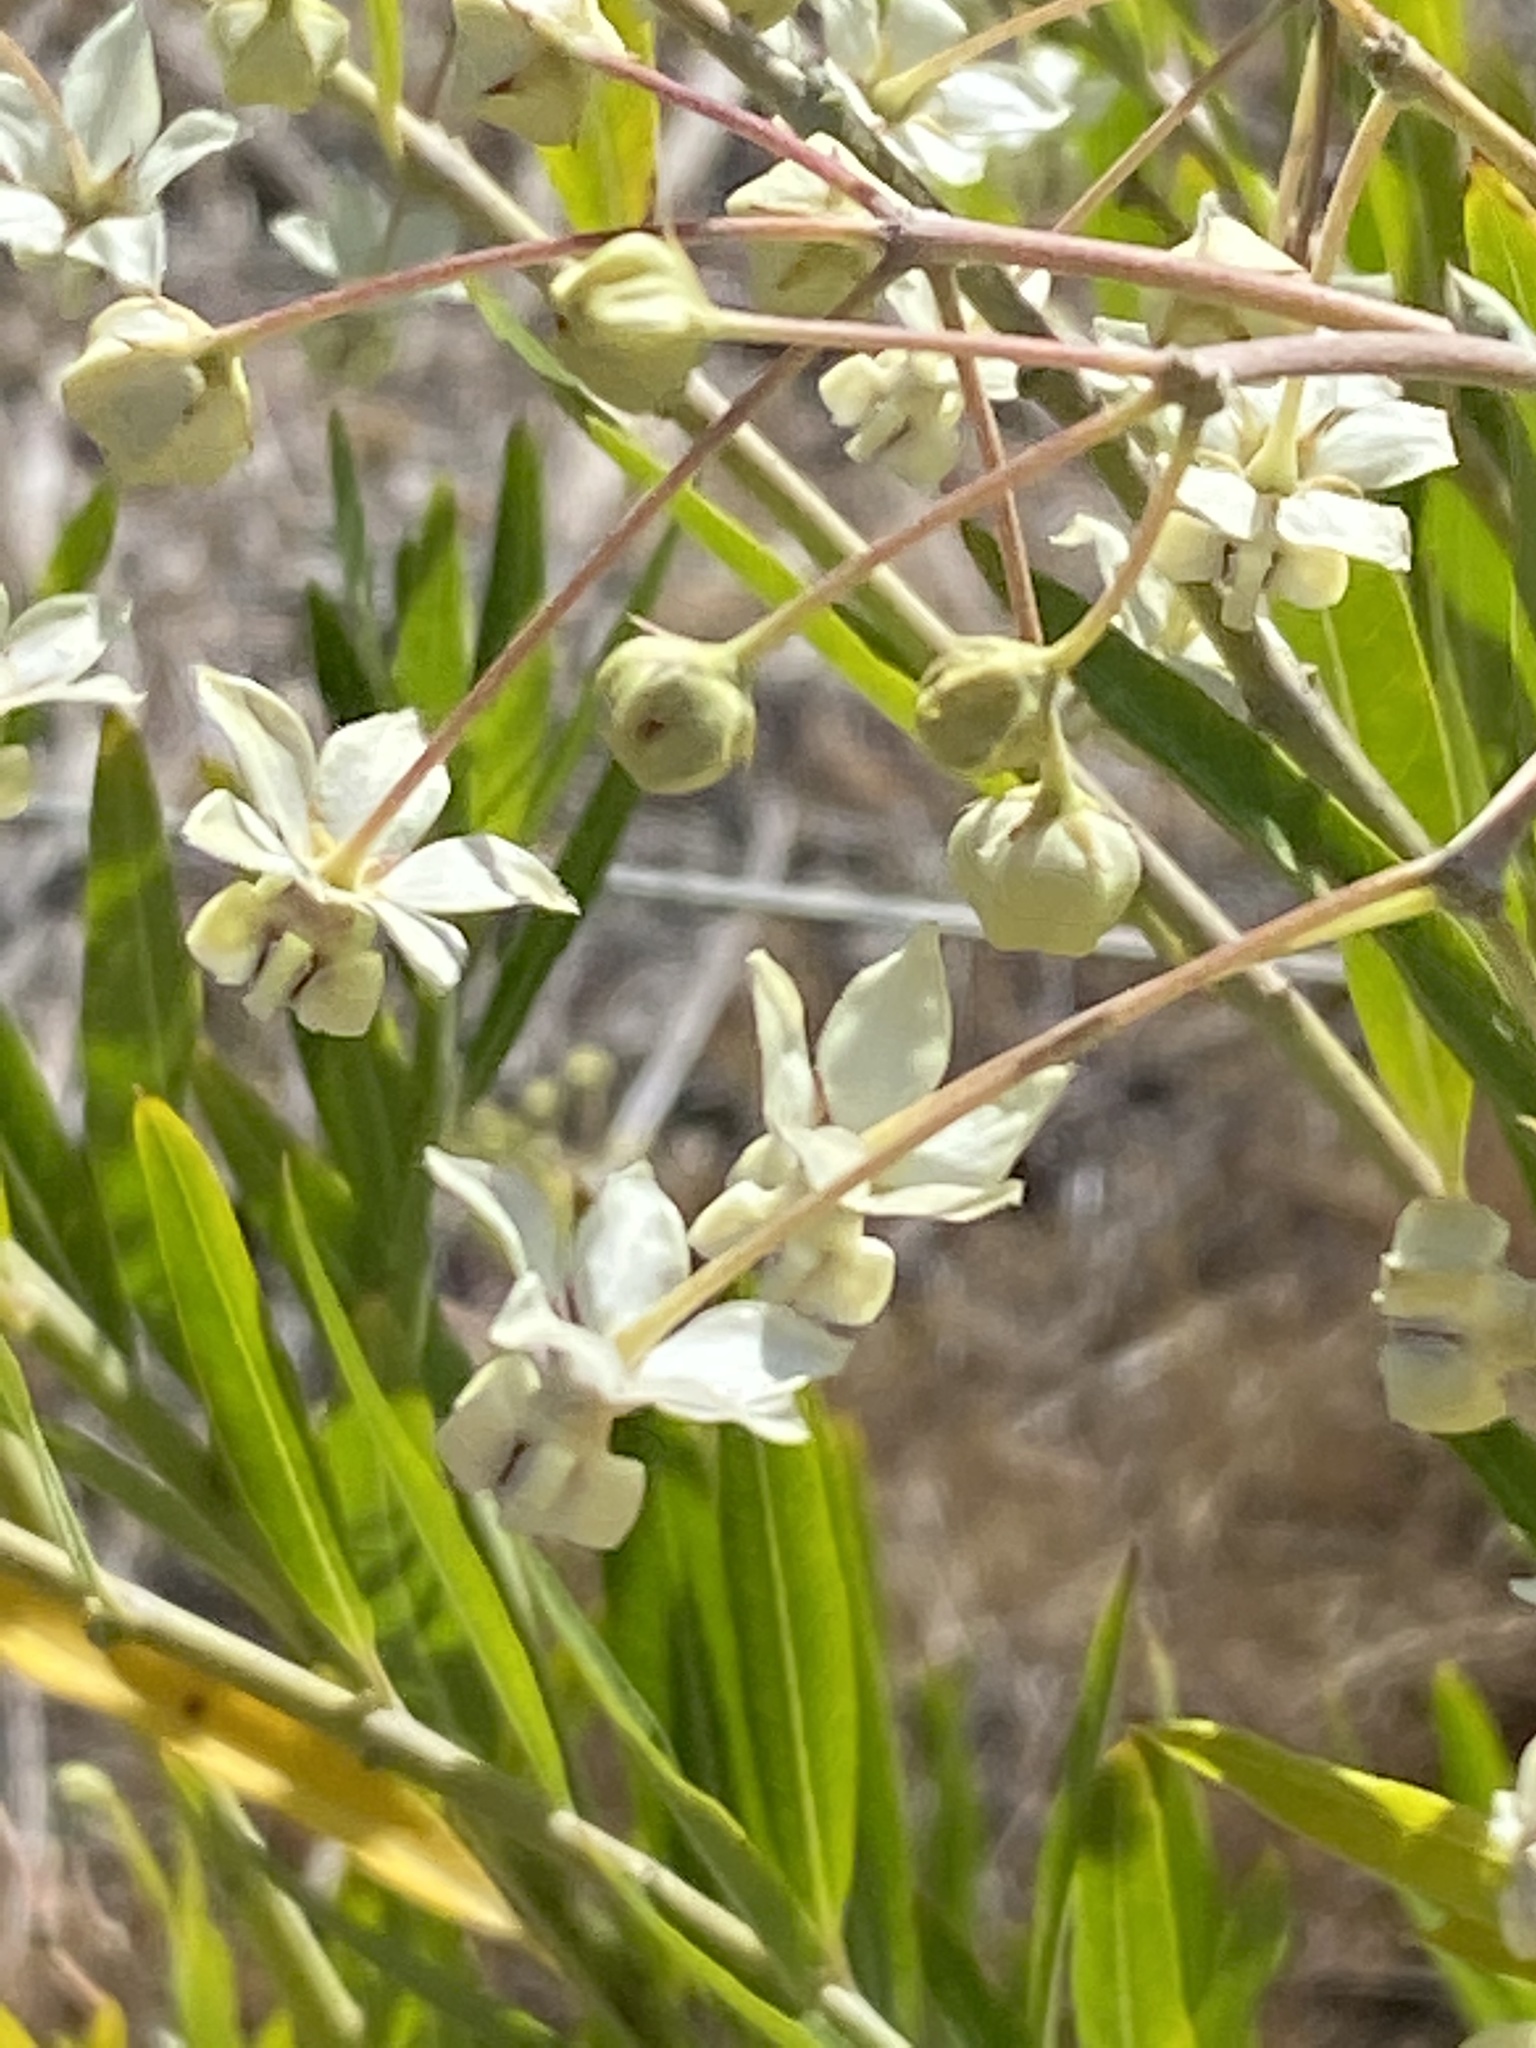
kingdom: Plantae
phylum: Tracheophyta
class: Magnoliopsida
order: Gentianales
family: Apocynaceae
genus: Gomphocarpus
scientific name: Gomphocarpus fruticosus
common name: Milkweed
